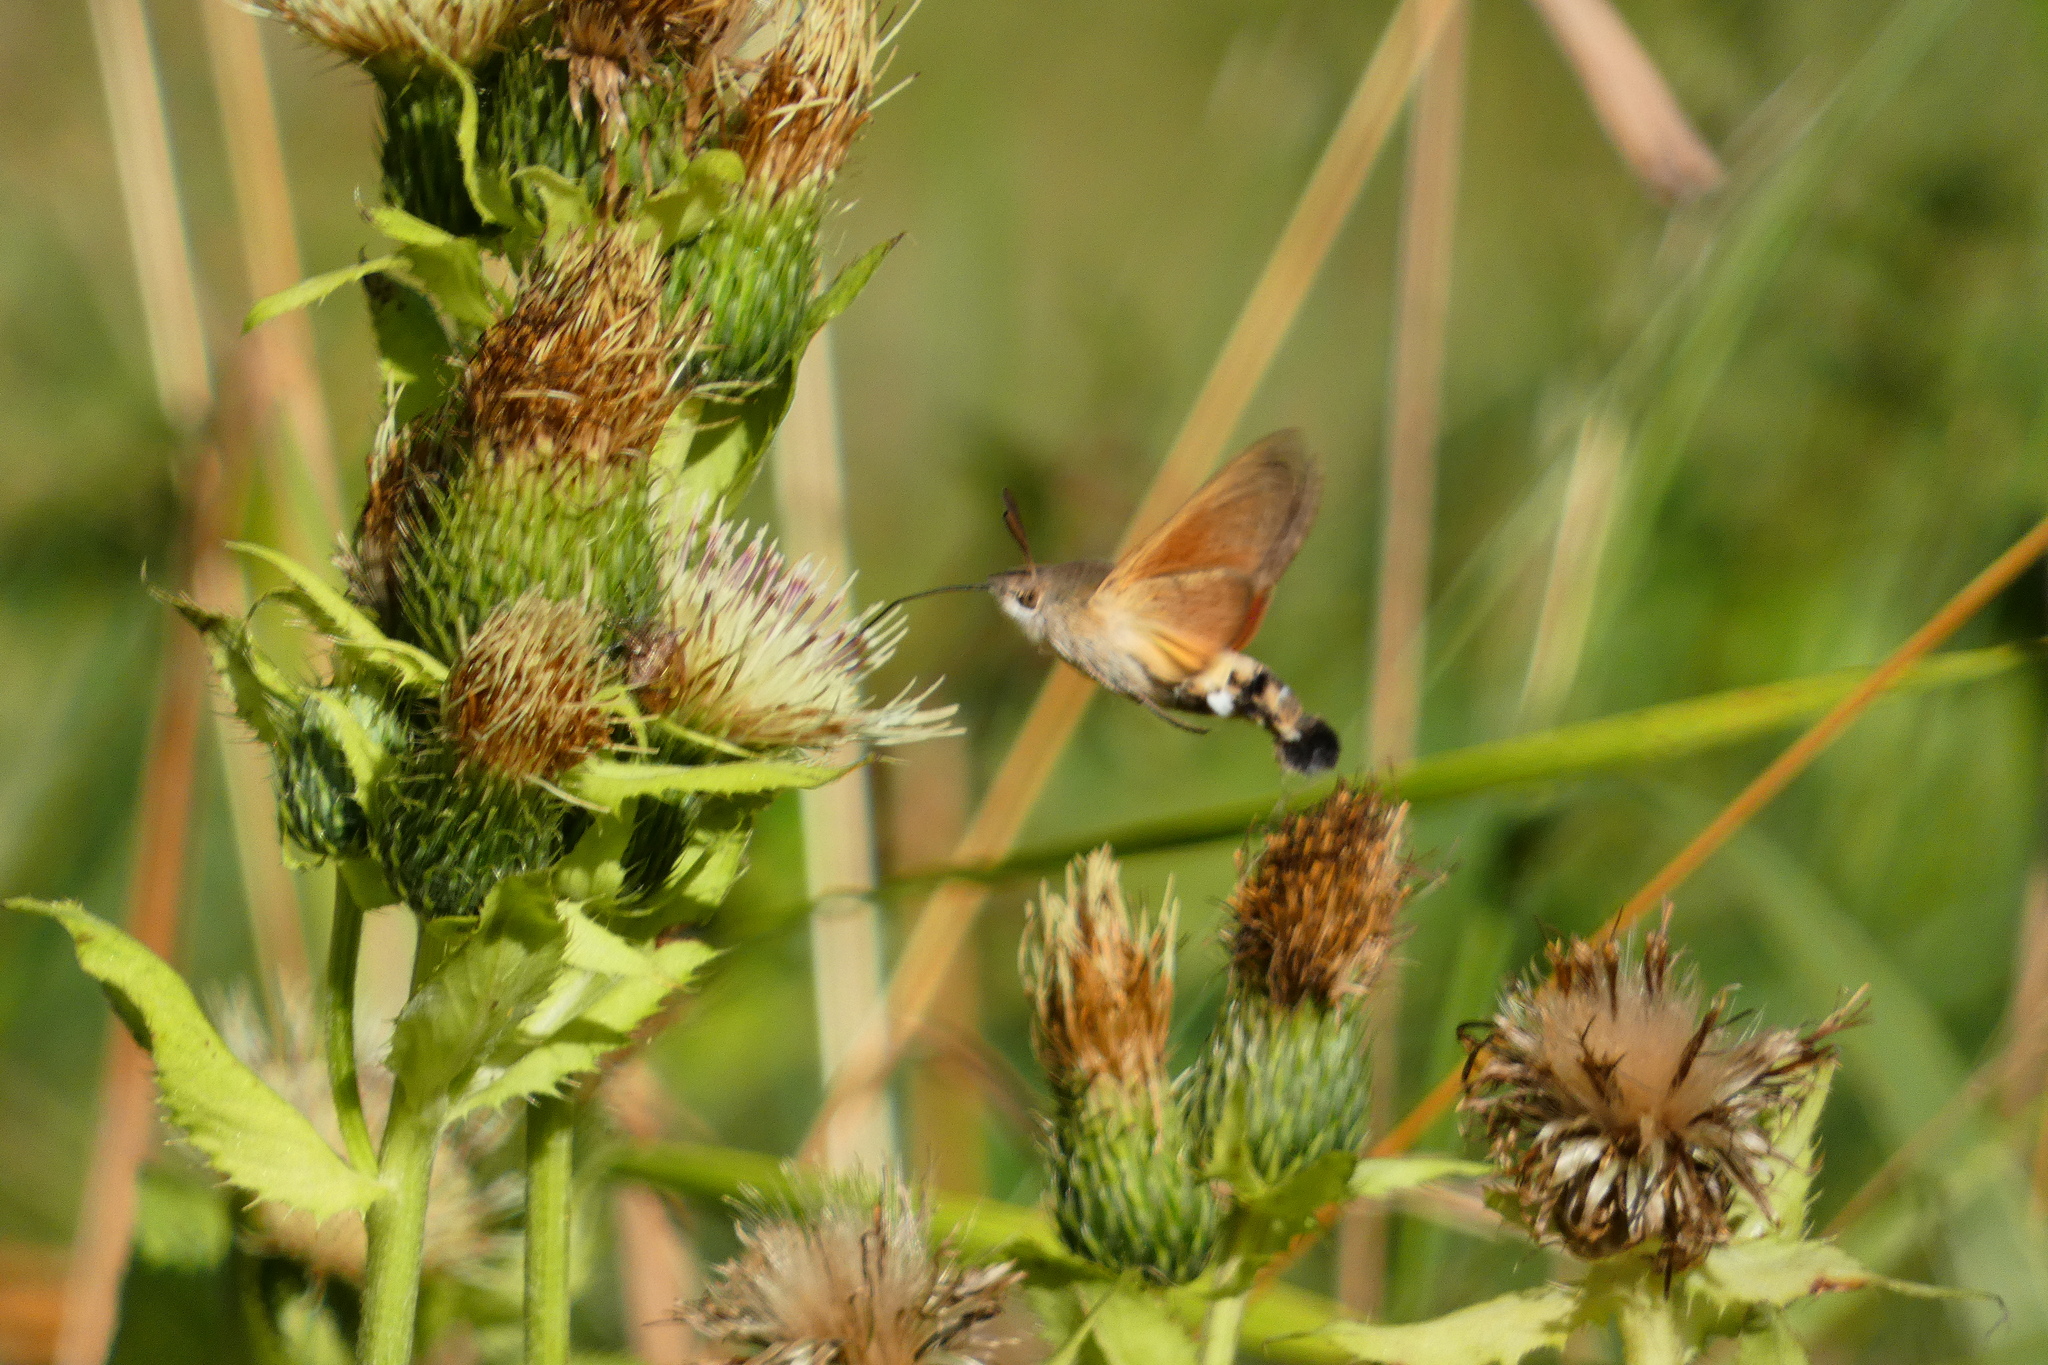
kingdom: Animalia
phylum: Arthropoda
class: Insecta
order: Lepidoptera
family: Sphingidae
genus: Macroglossum
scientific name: Macroglossum stellatarum
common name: Humming-bird hawk-moth
